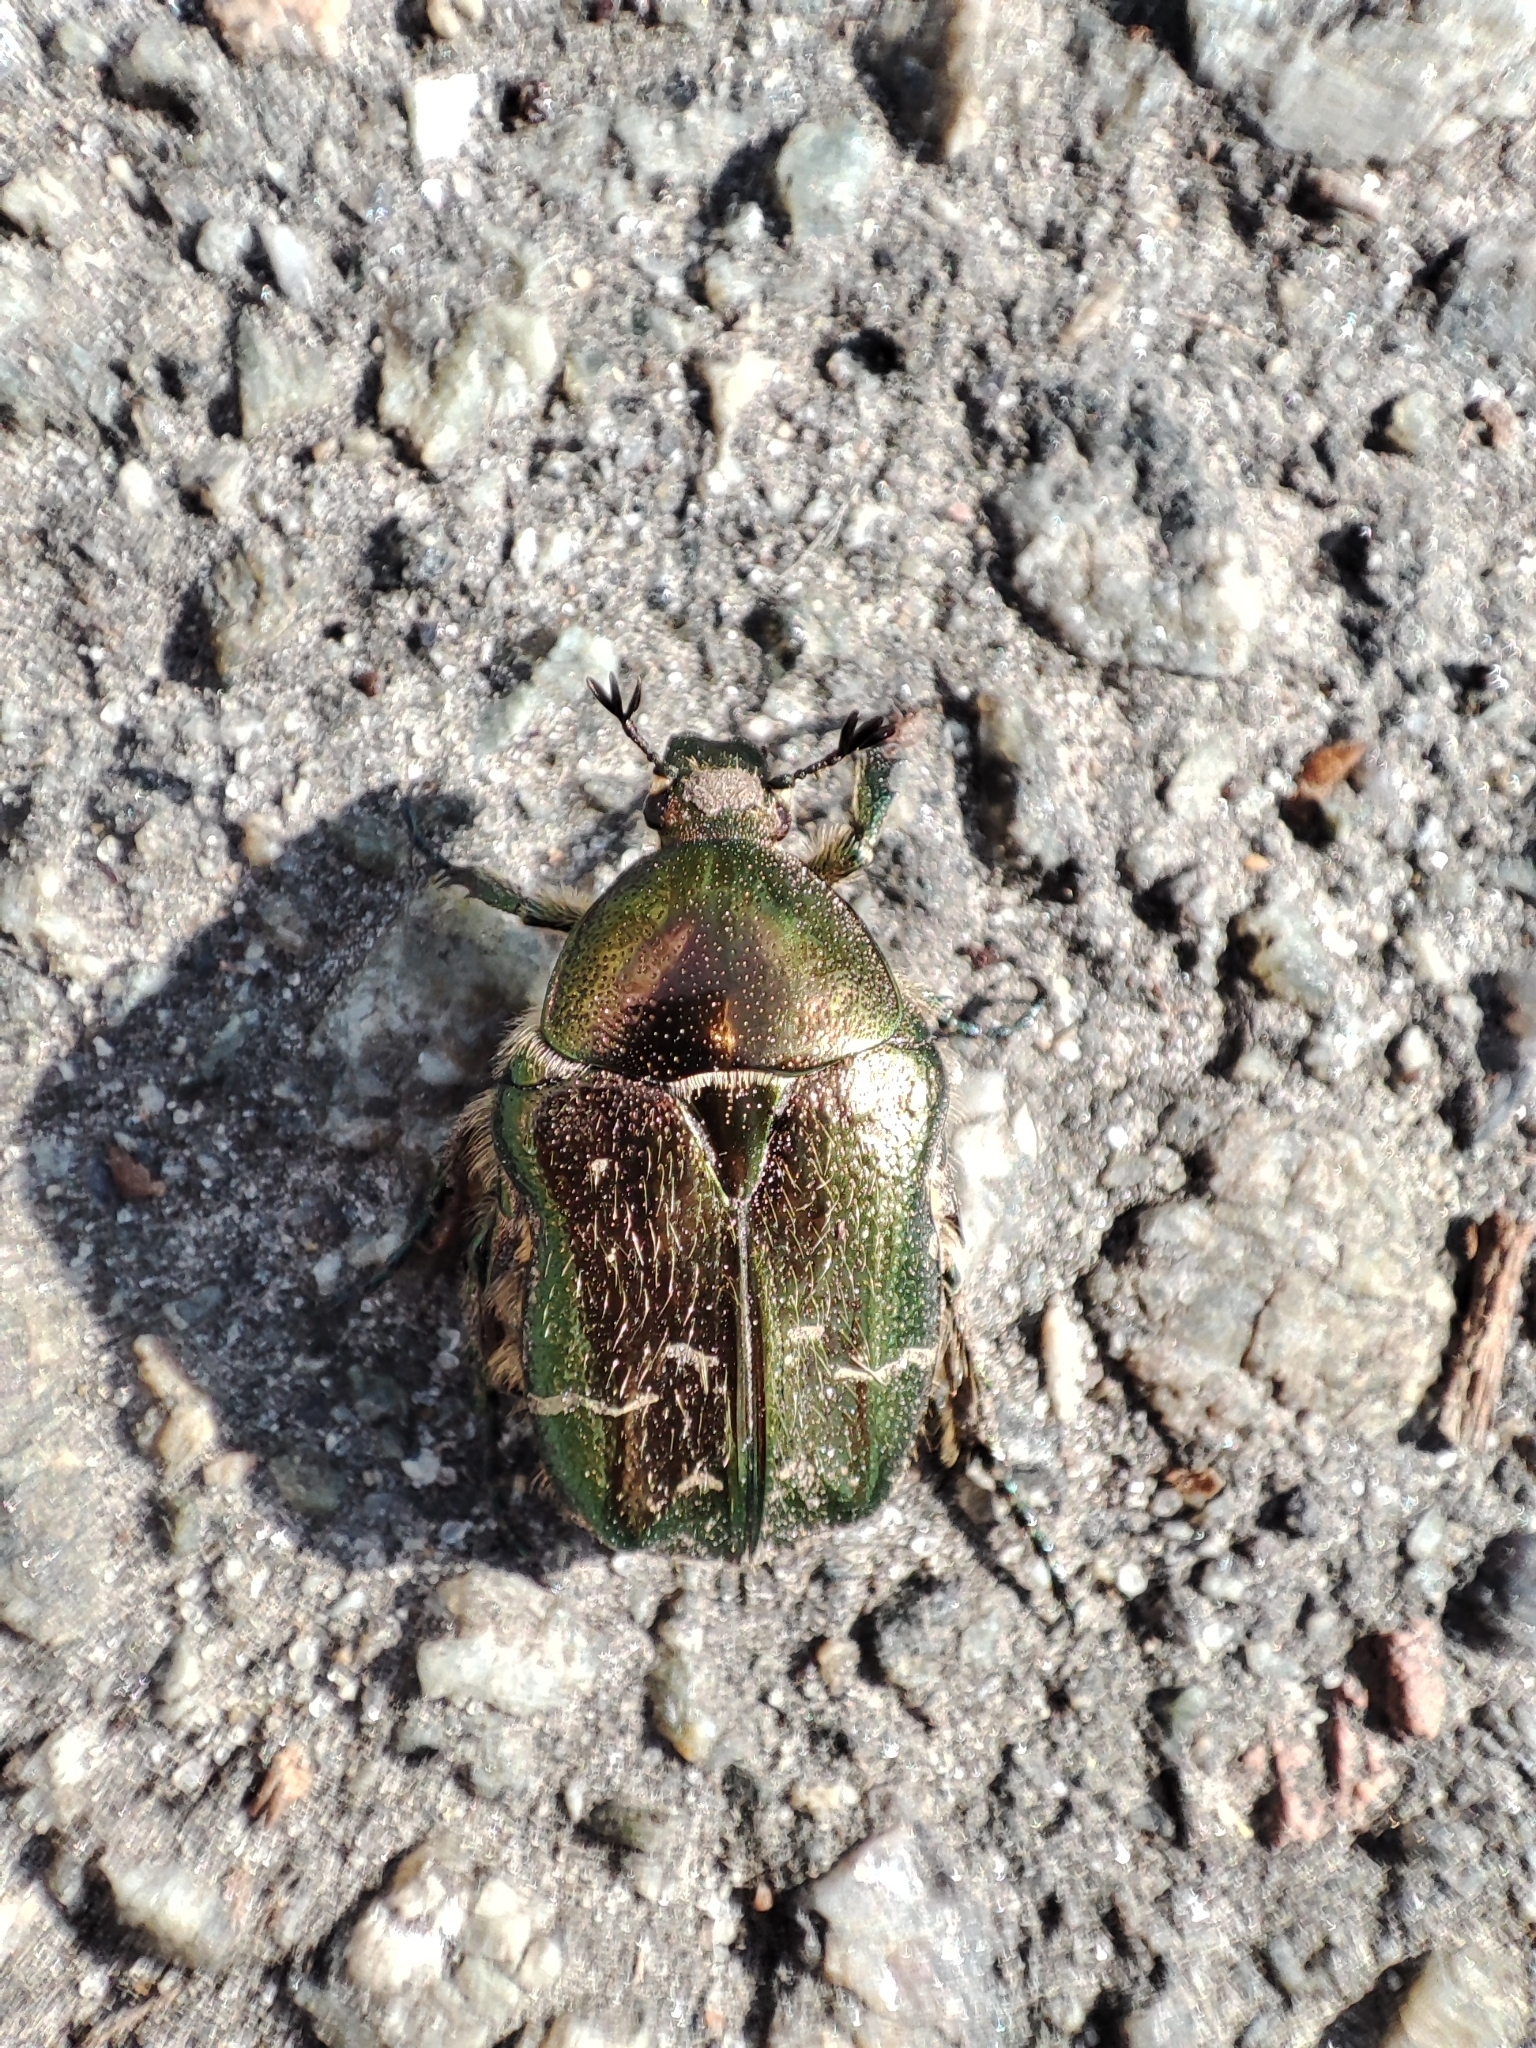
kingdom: Animalia
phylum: Arthropoda
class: Insecta
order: Coleoptera
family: Scarabaeidae
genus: Cetonia
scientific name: Cetonia aurata
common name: Rose chafer
